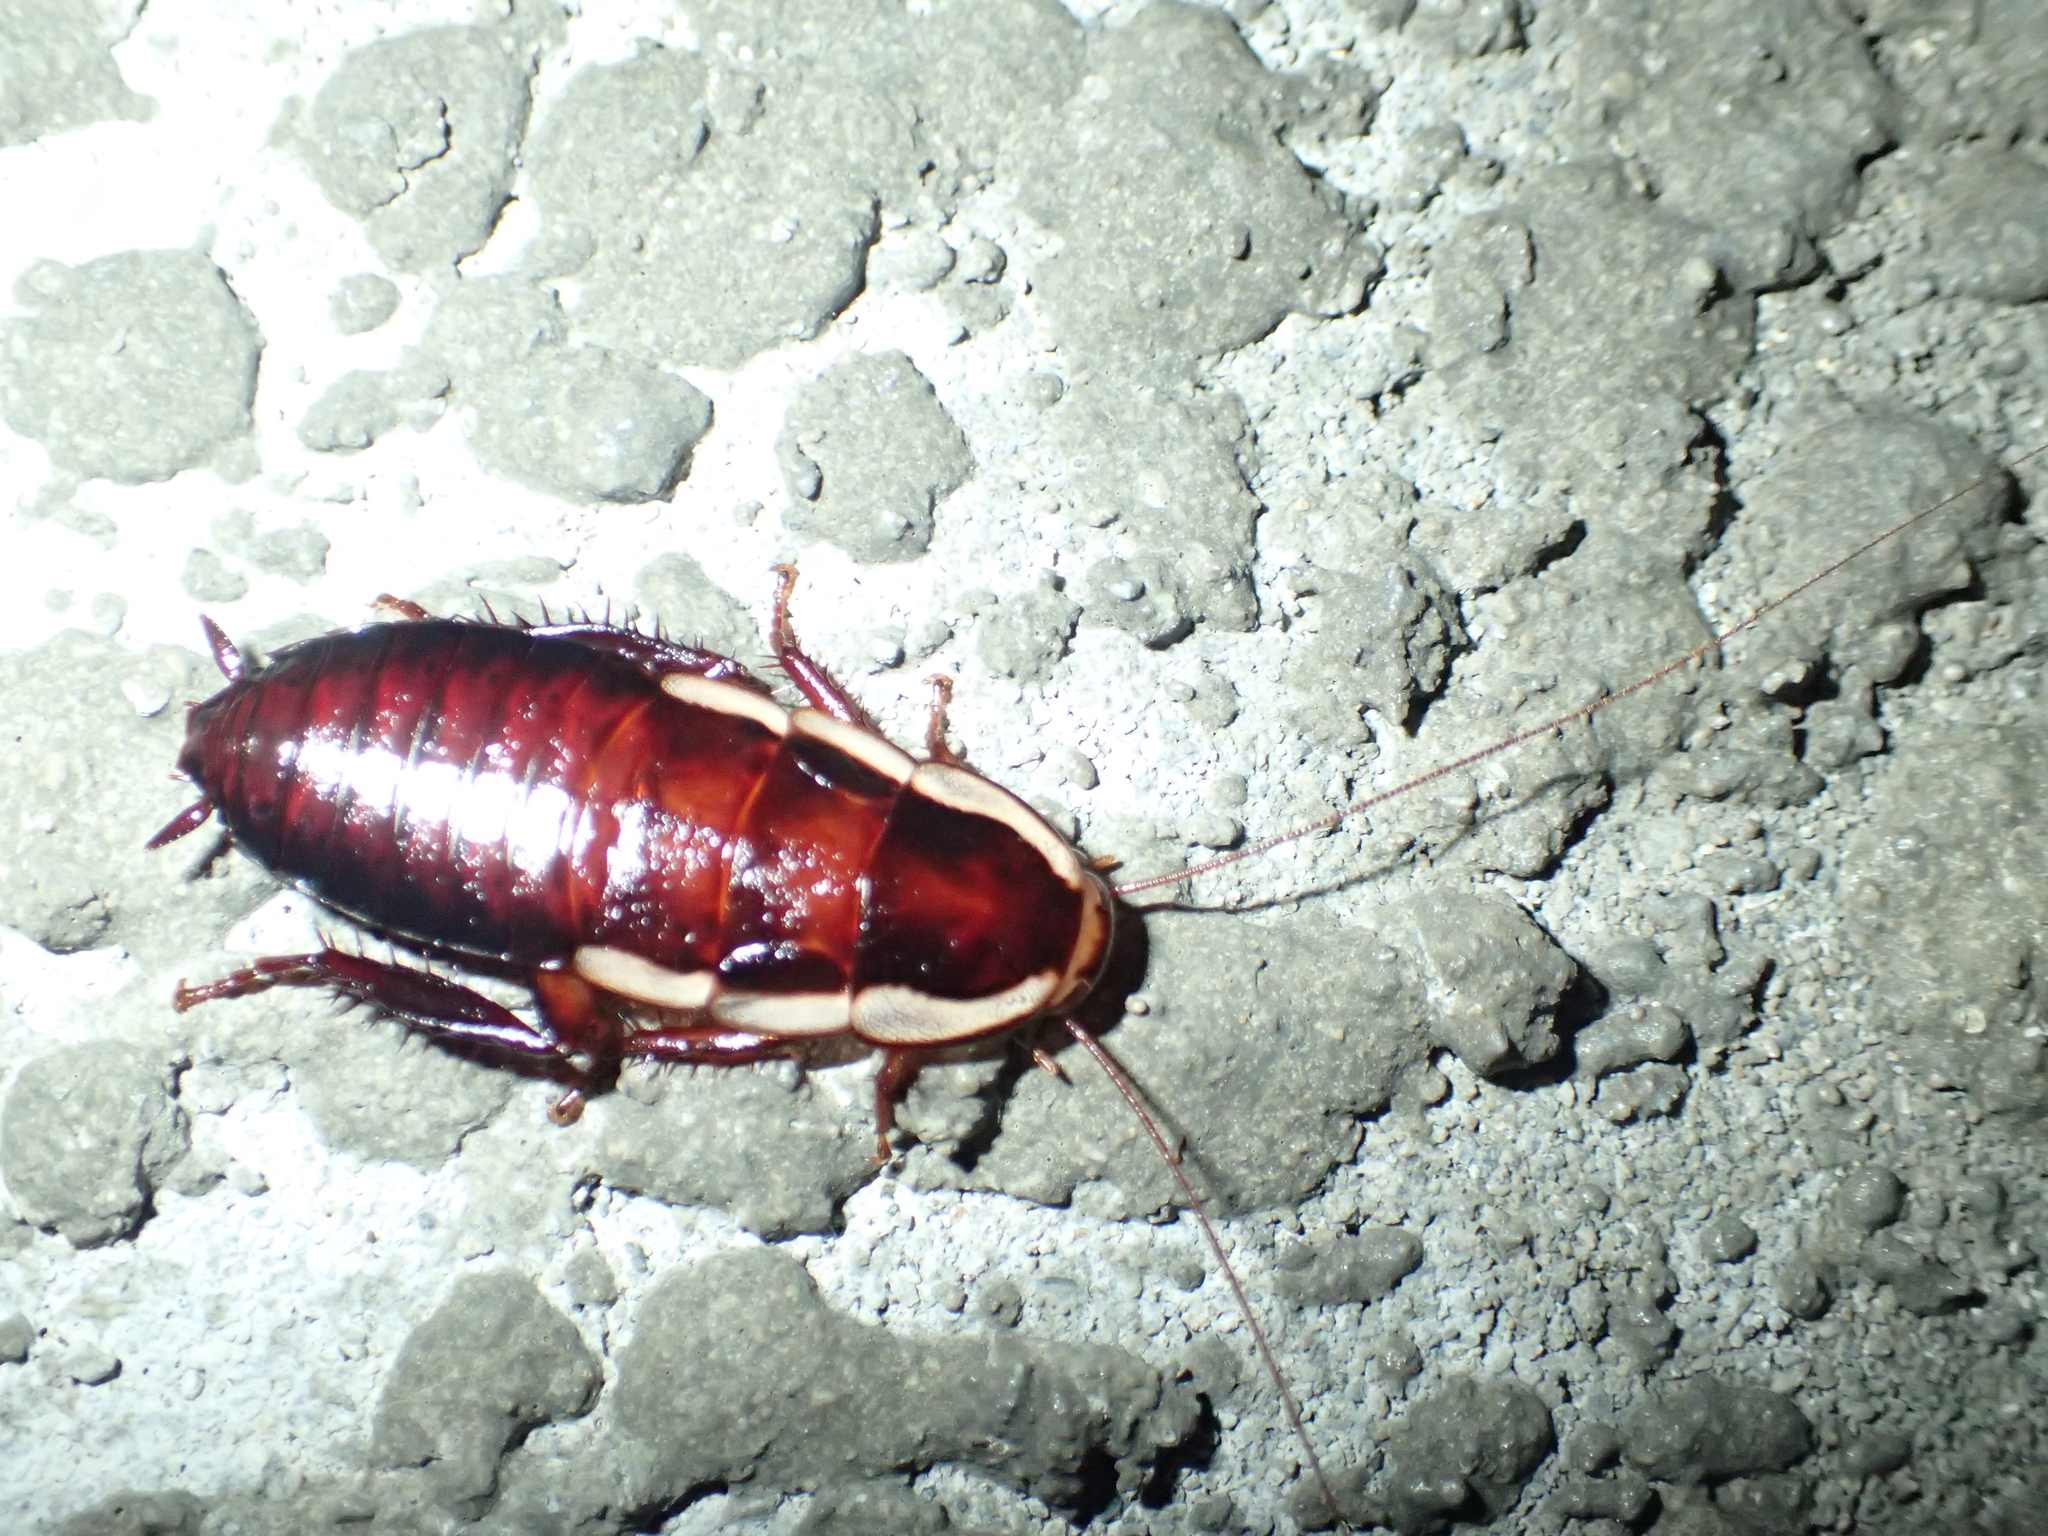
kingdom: Animalia
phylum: Arthropoda
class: Insecta
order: Blattodea
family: Blattidae
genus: Drymaplaneta
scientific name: Drymaplaneta semivitta
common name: Gisborne cockroach
